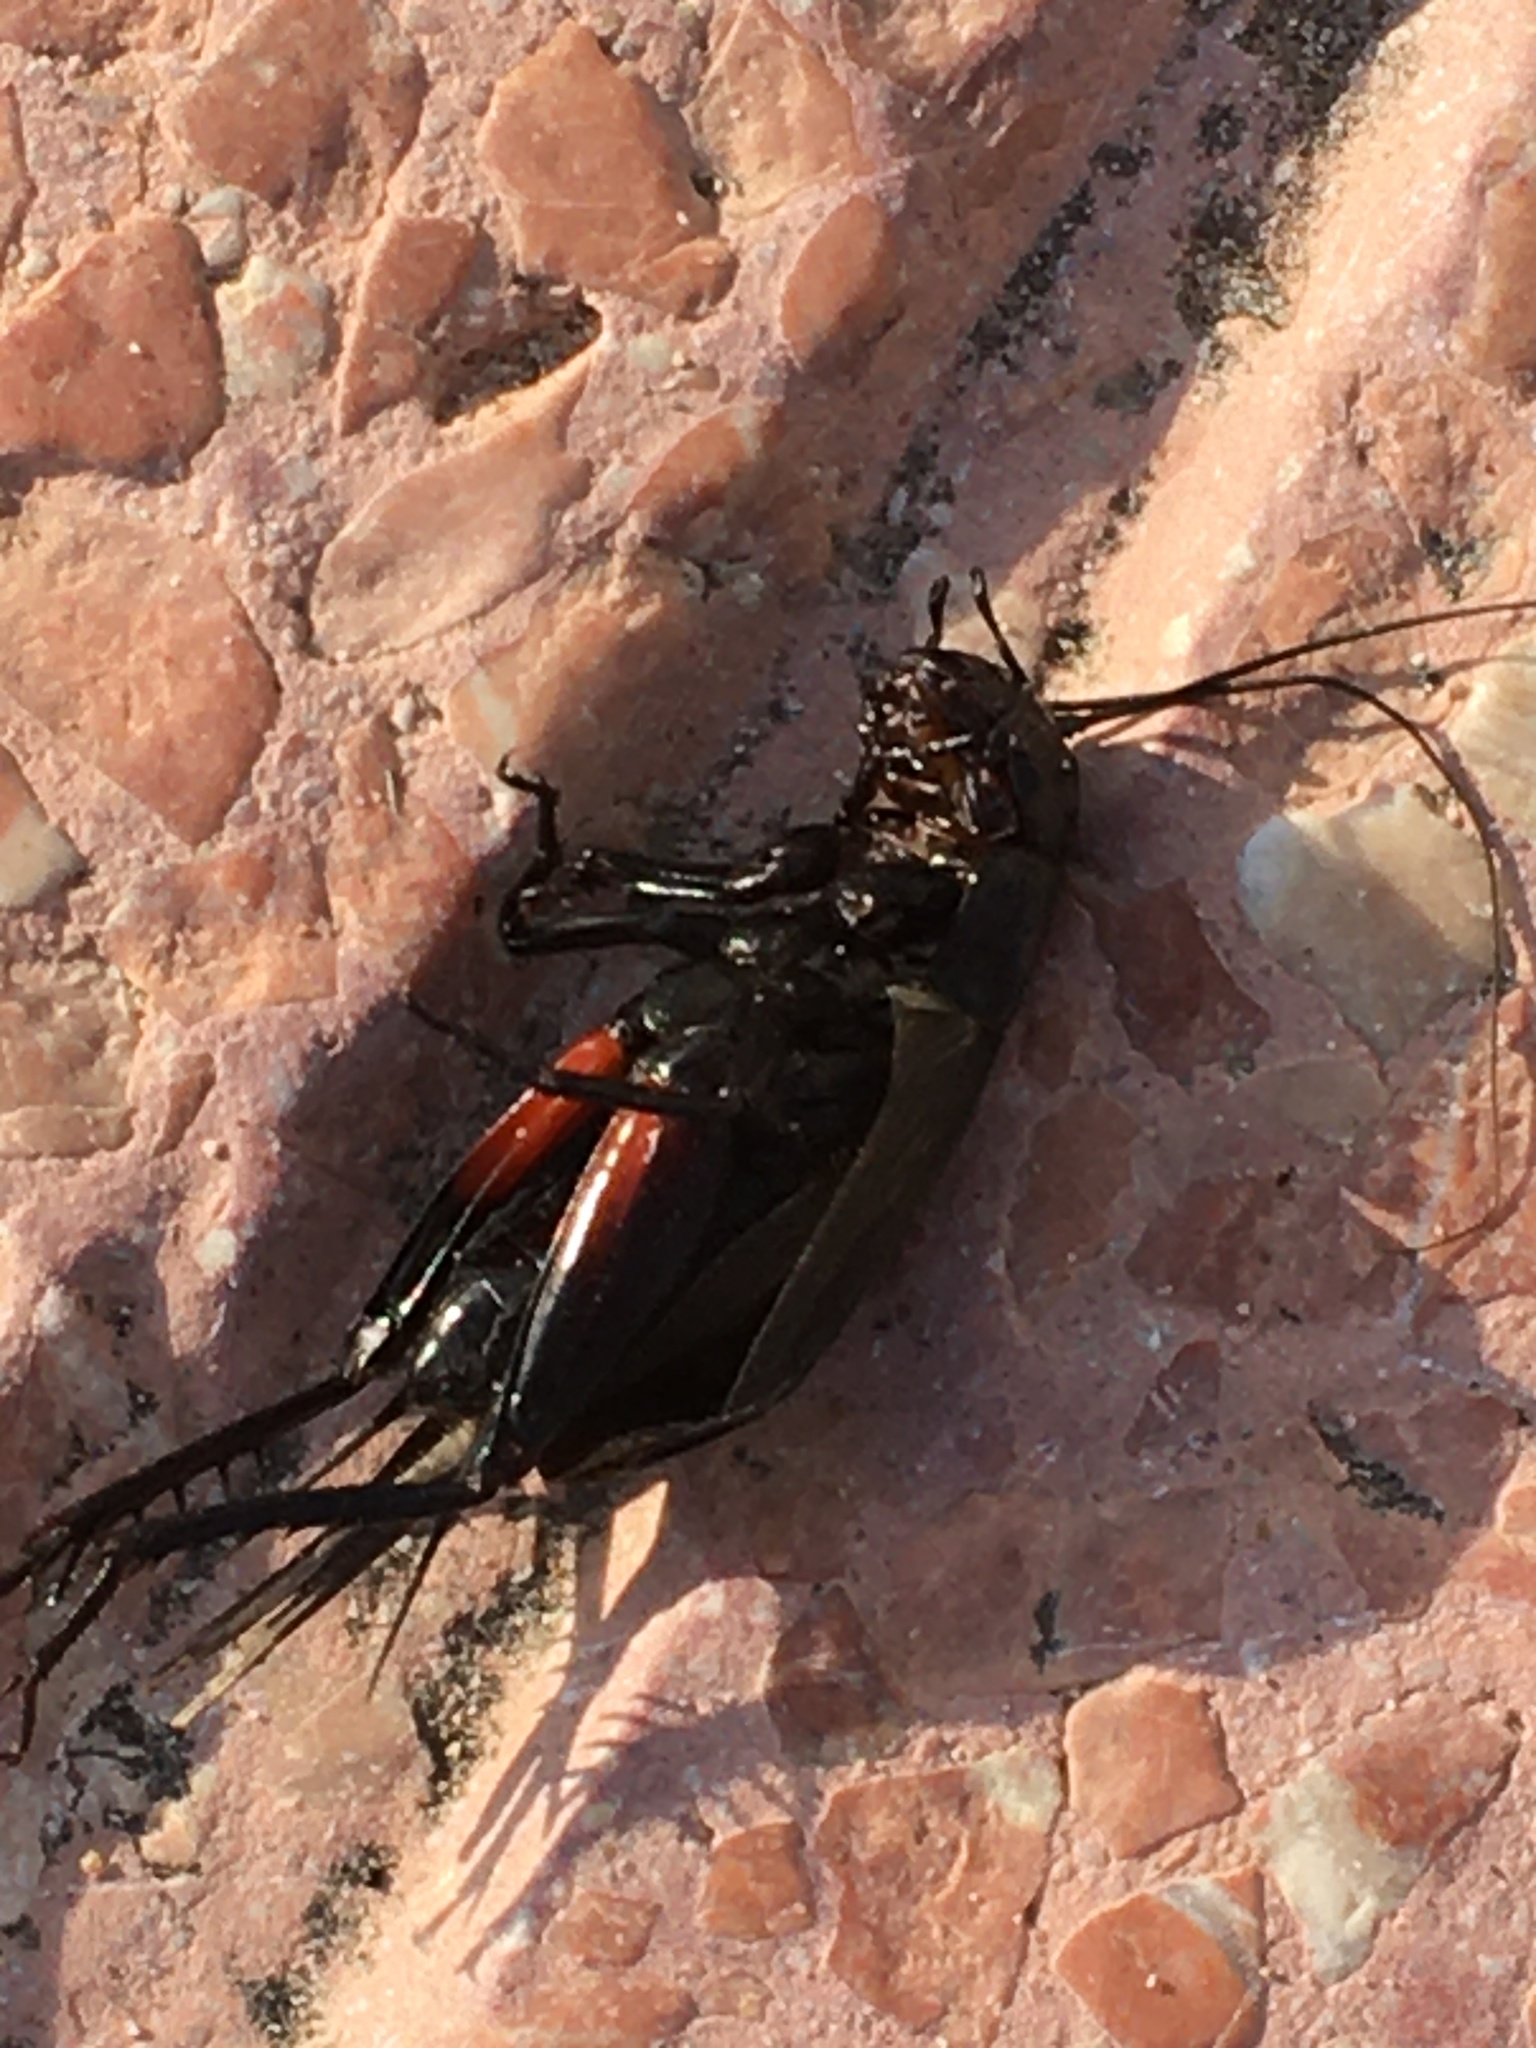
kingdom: Animalia
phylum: Arthropoda
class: Insecta
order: Orthoptera
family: Gryllidae
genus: Gryllus
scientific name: Gryllus bimaculatus
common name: Two-spotted cricket
